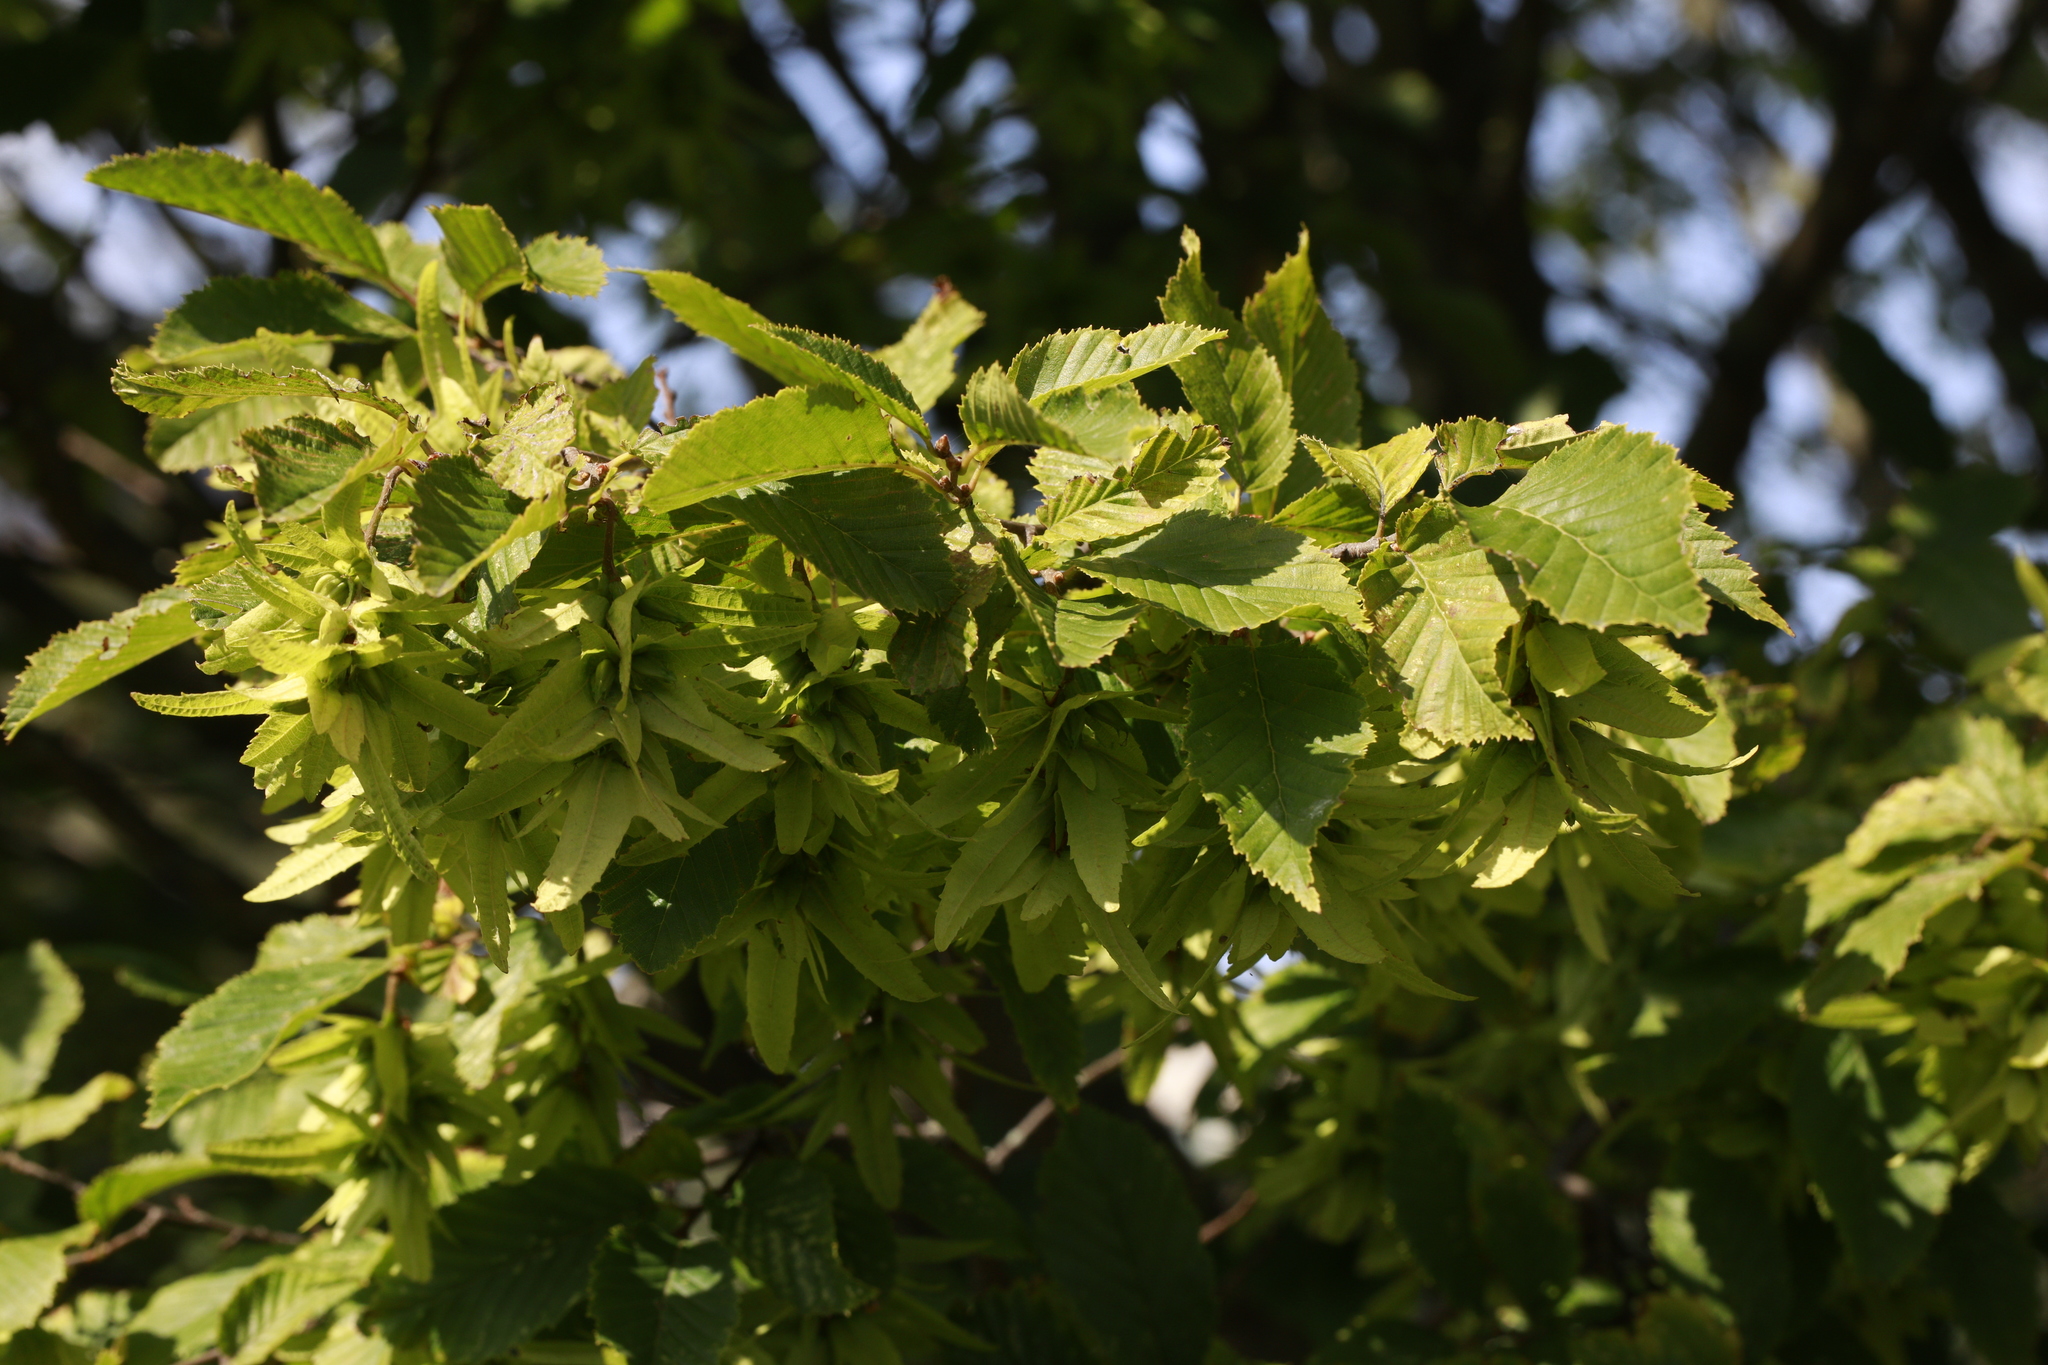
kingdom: Plantae
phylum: Tracheophyta
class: Magnoliopsida
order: Fagales
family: Betulaceae
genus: Carpinus
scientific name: Carpinus betulus
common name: Hornbeam
